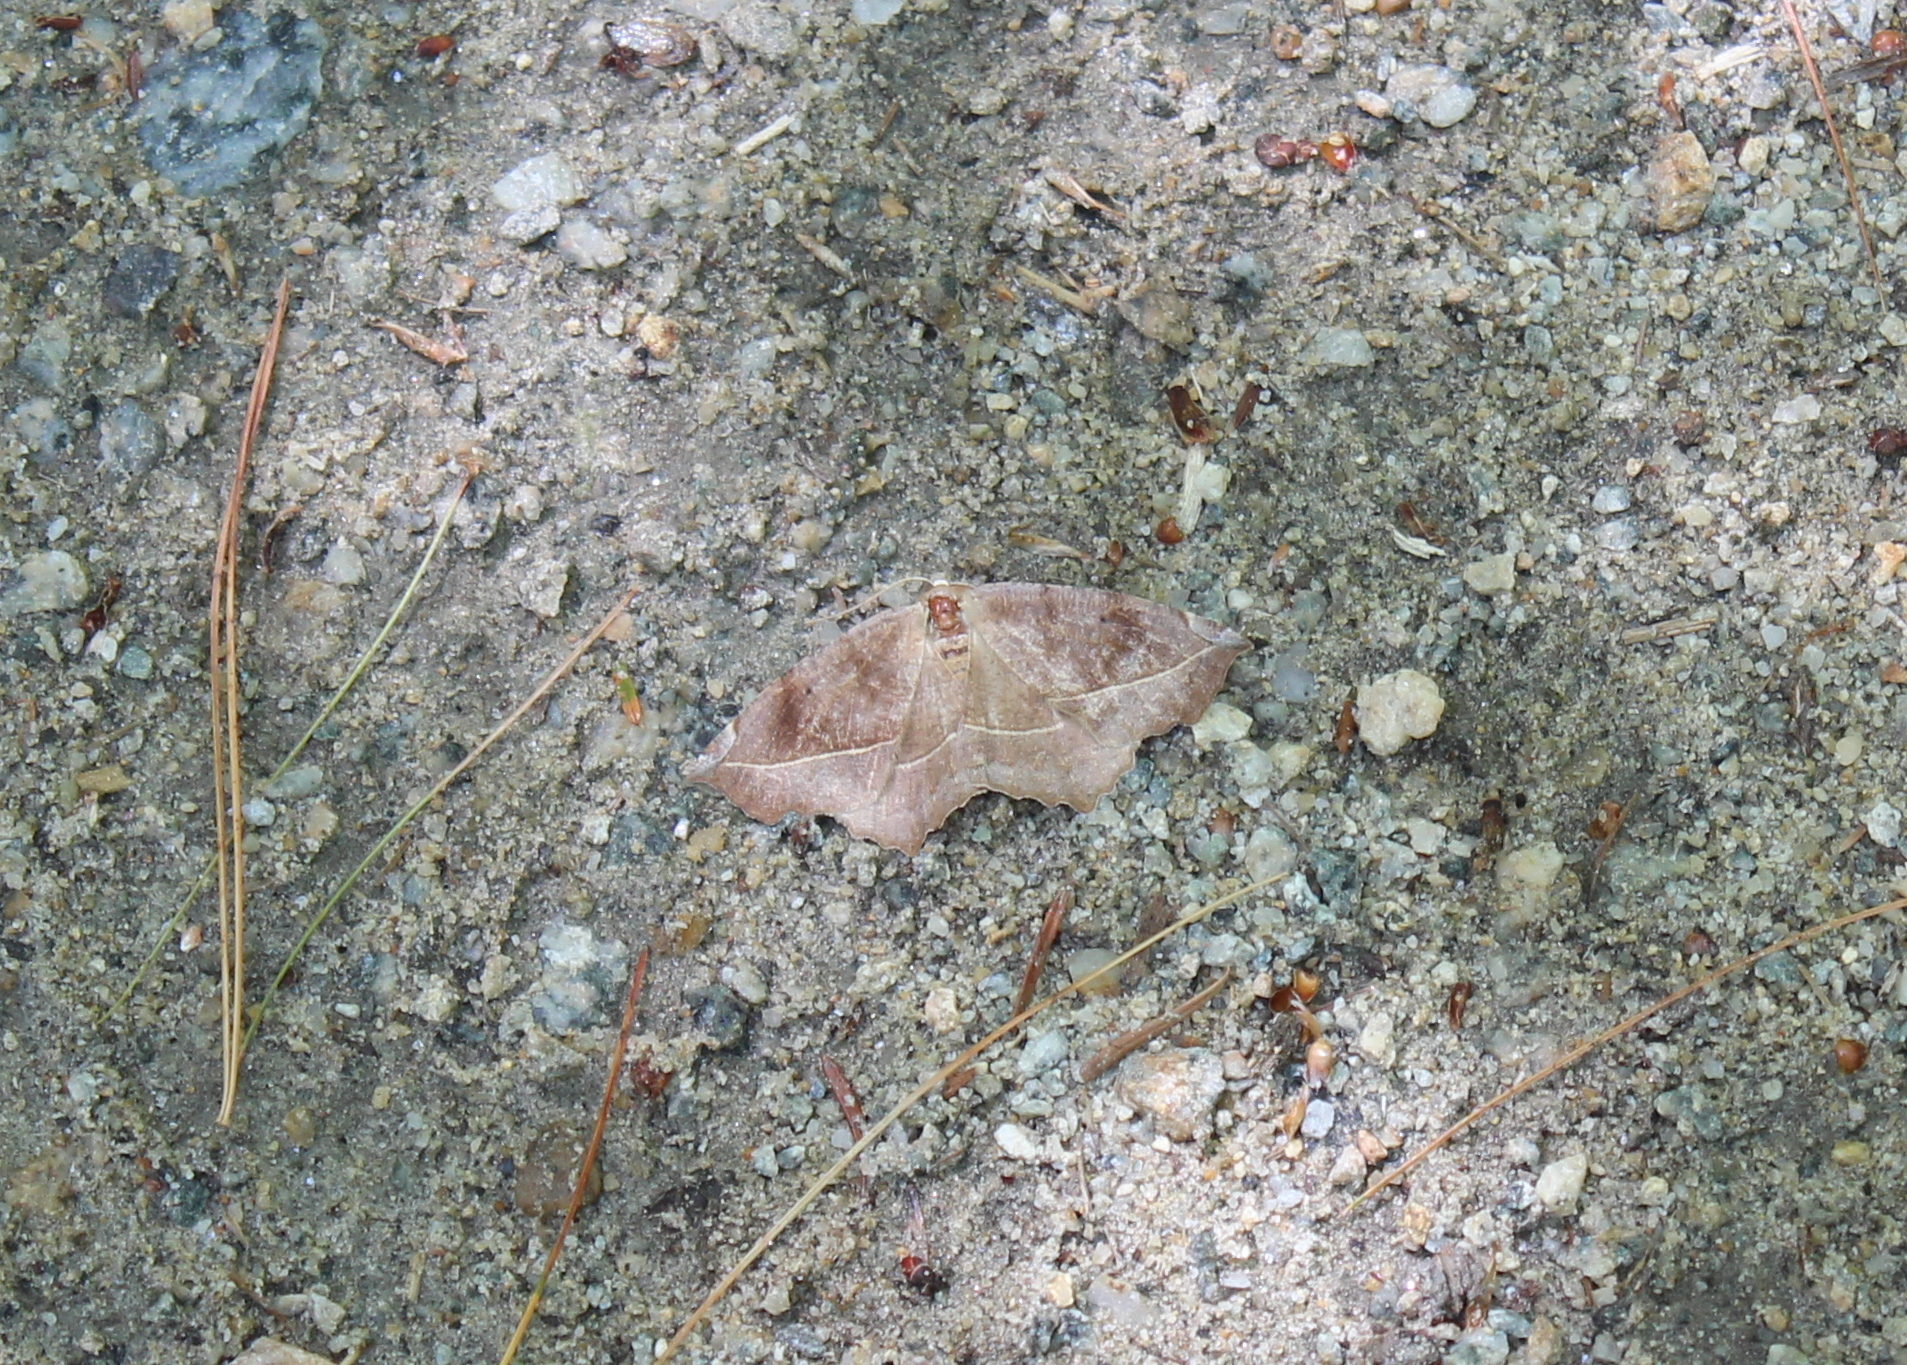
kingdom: Animalia
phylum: Arthropoda
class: Insecta
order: Lepidoptera
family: Geometridae
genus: Eutrapela
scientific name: Eutrapela clemataria
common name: Curved-toothed geometer
